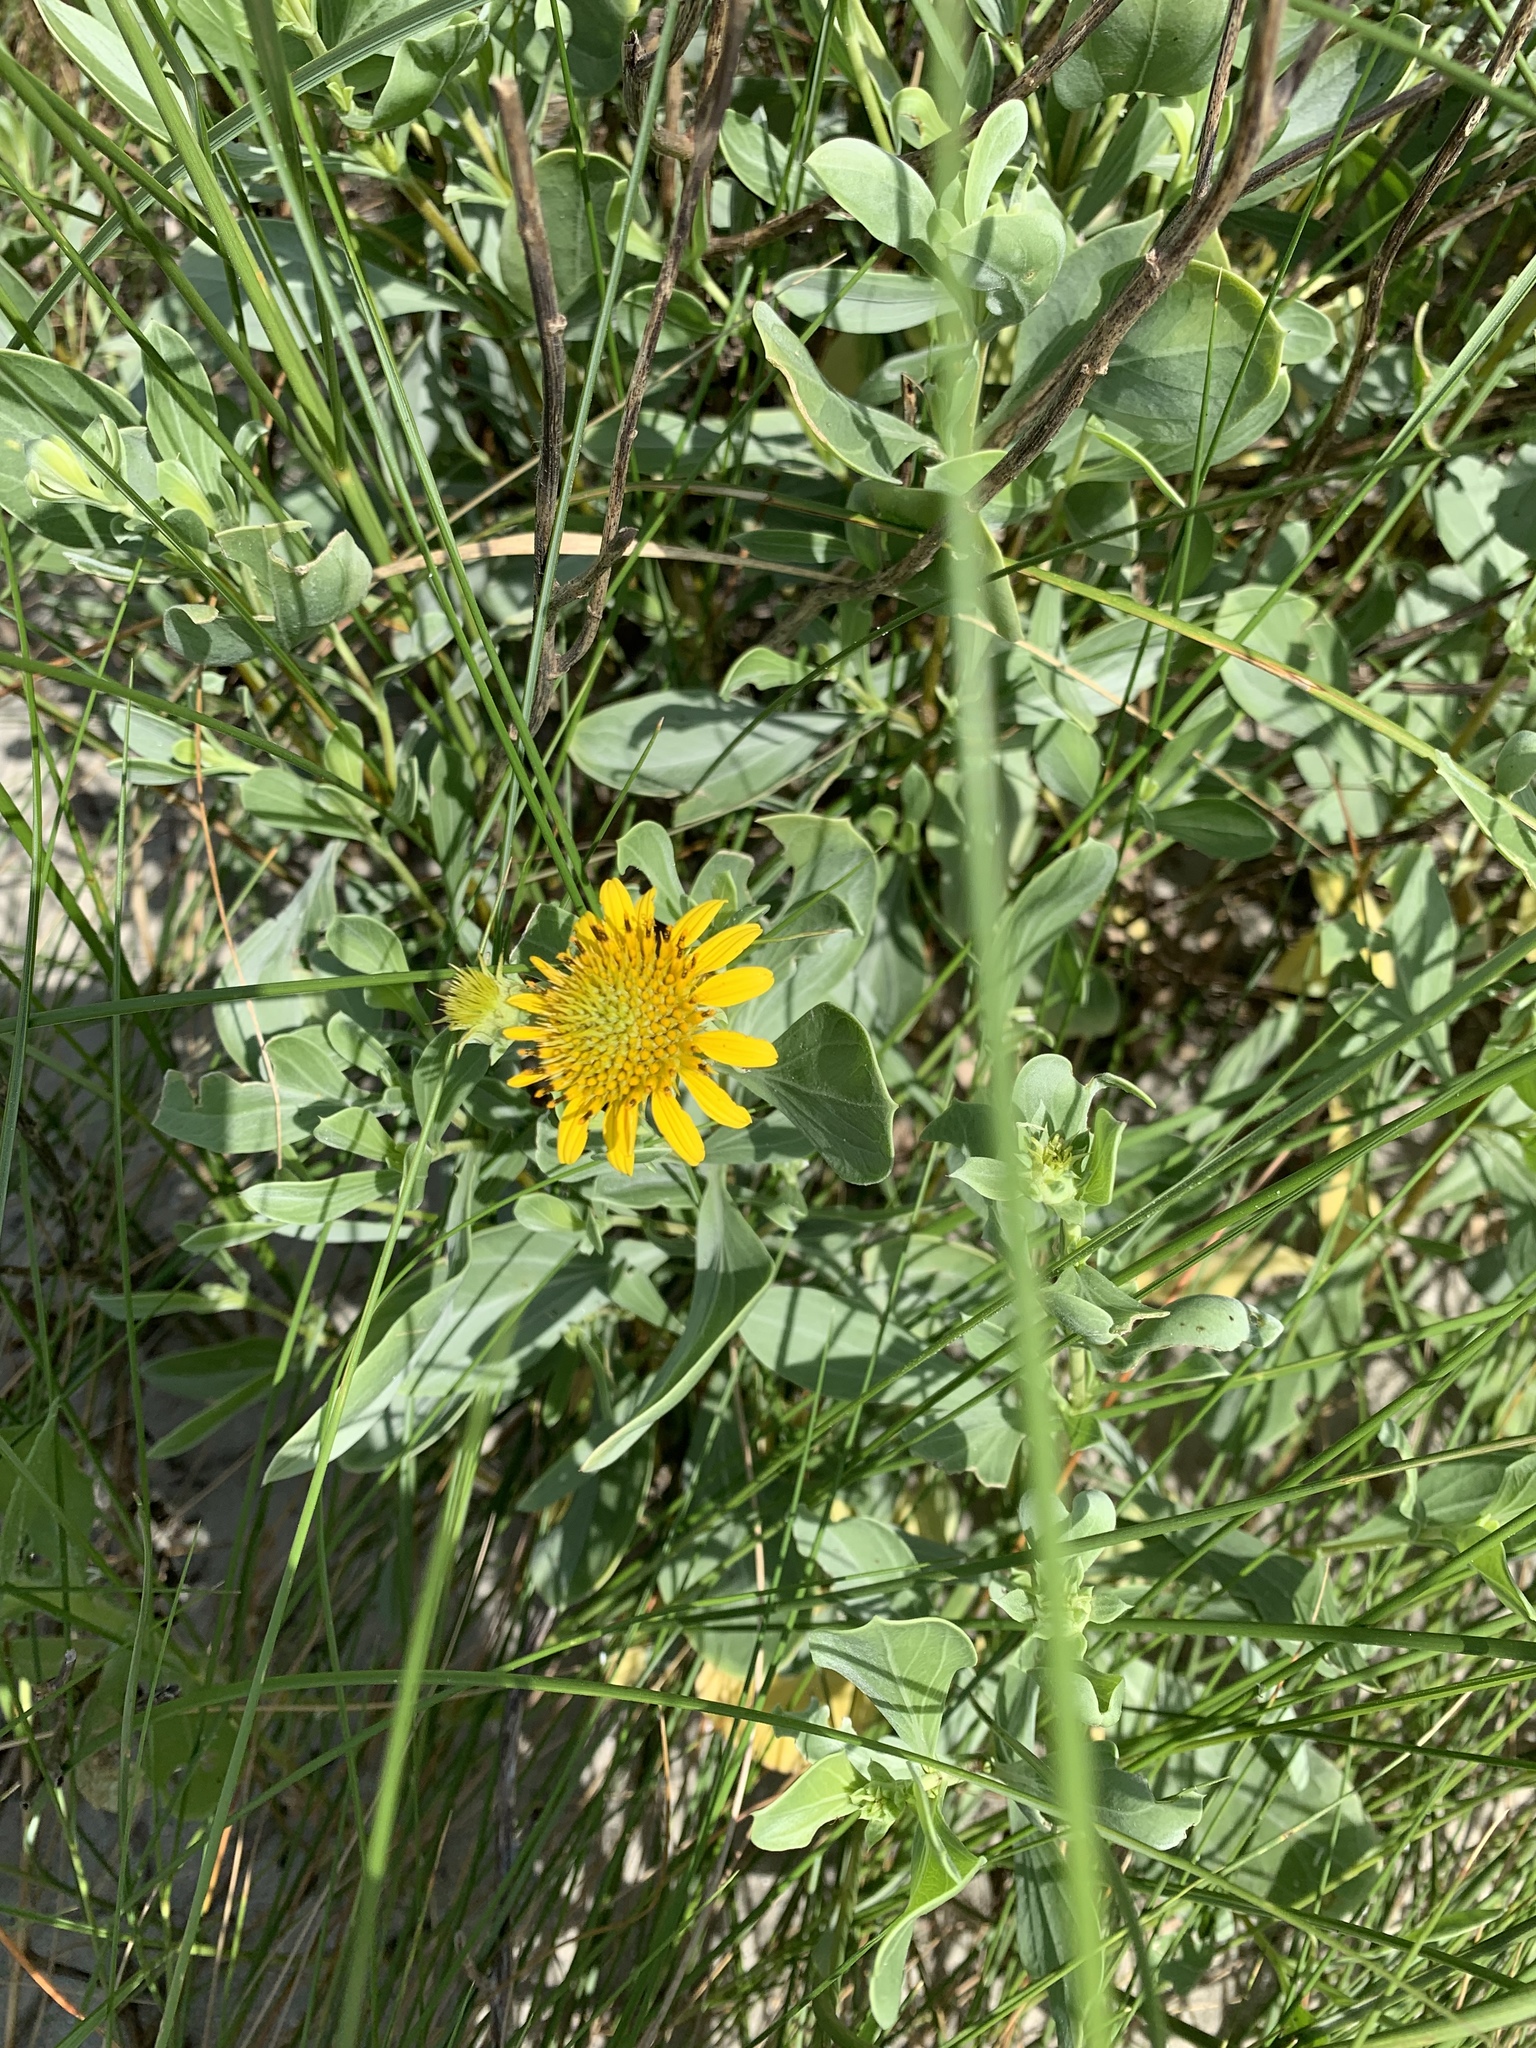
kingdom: Plantae
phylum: Tracheophyta
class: Magnoliopsida
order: Asterales
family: Asteraceae
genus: Borrichia
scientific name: Borrichia frutescens
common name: Sea oxeye
